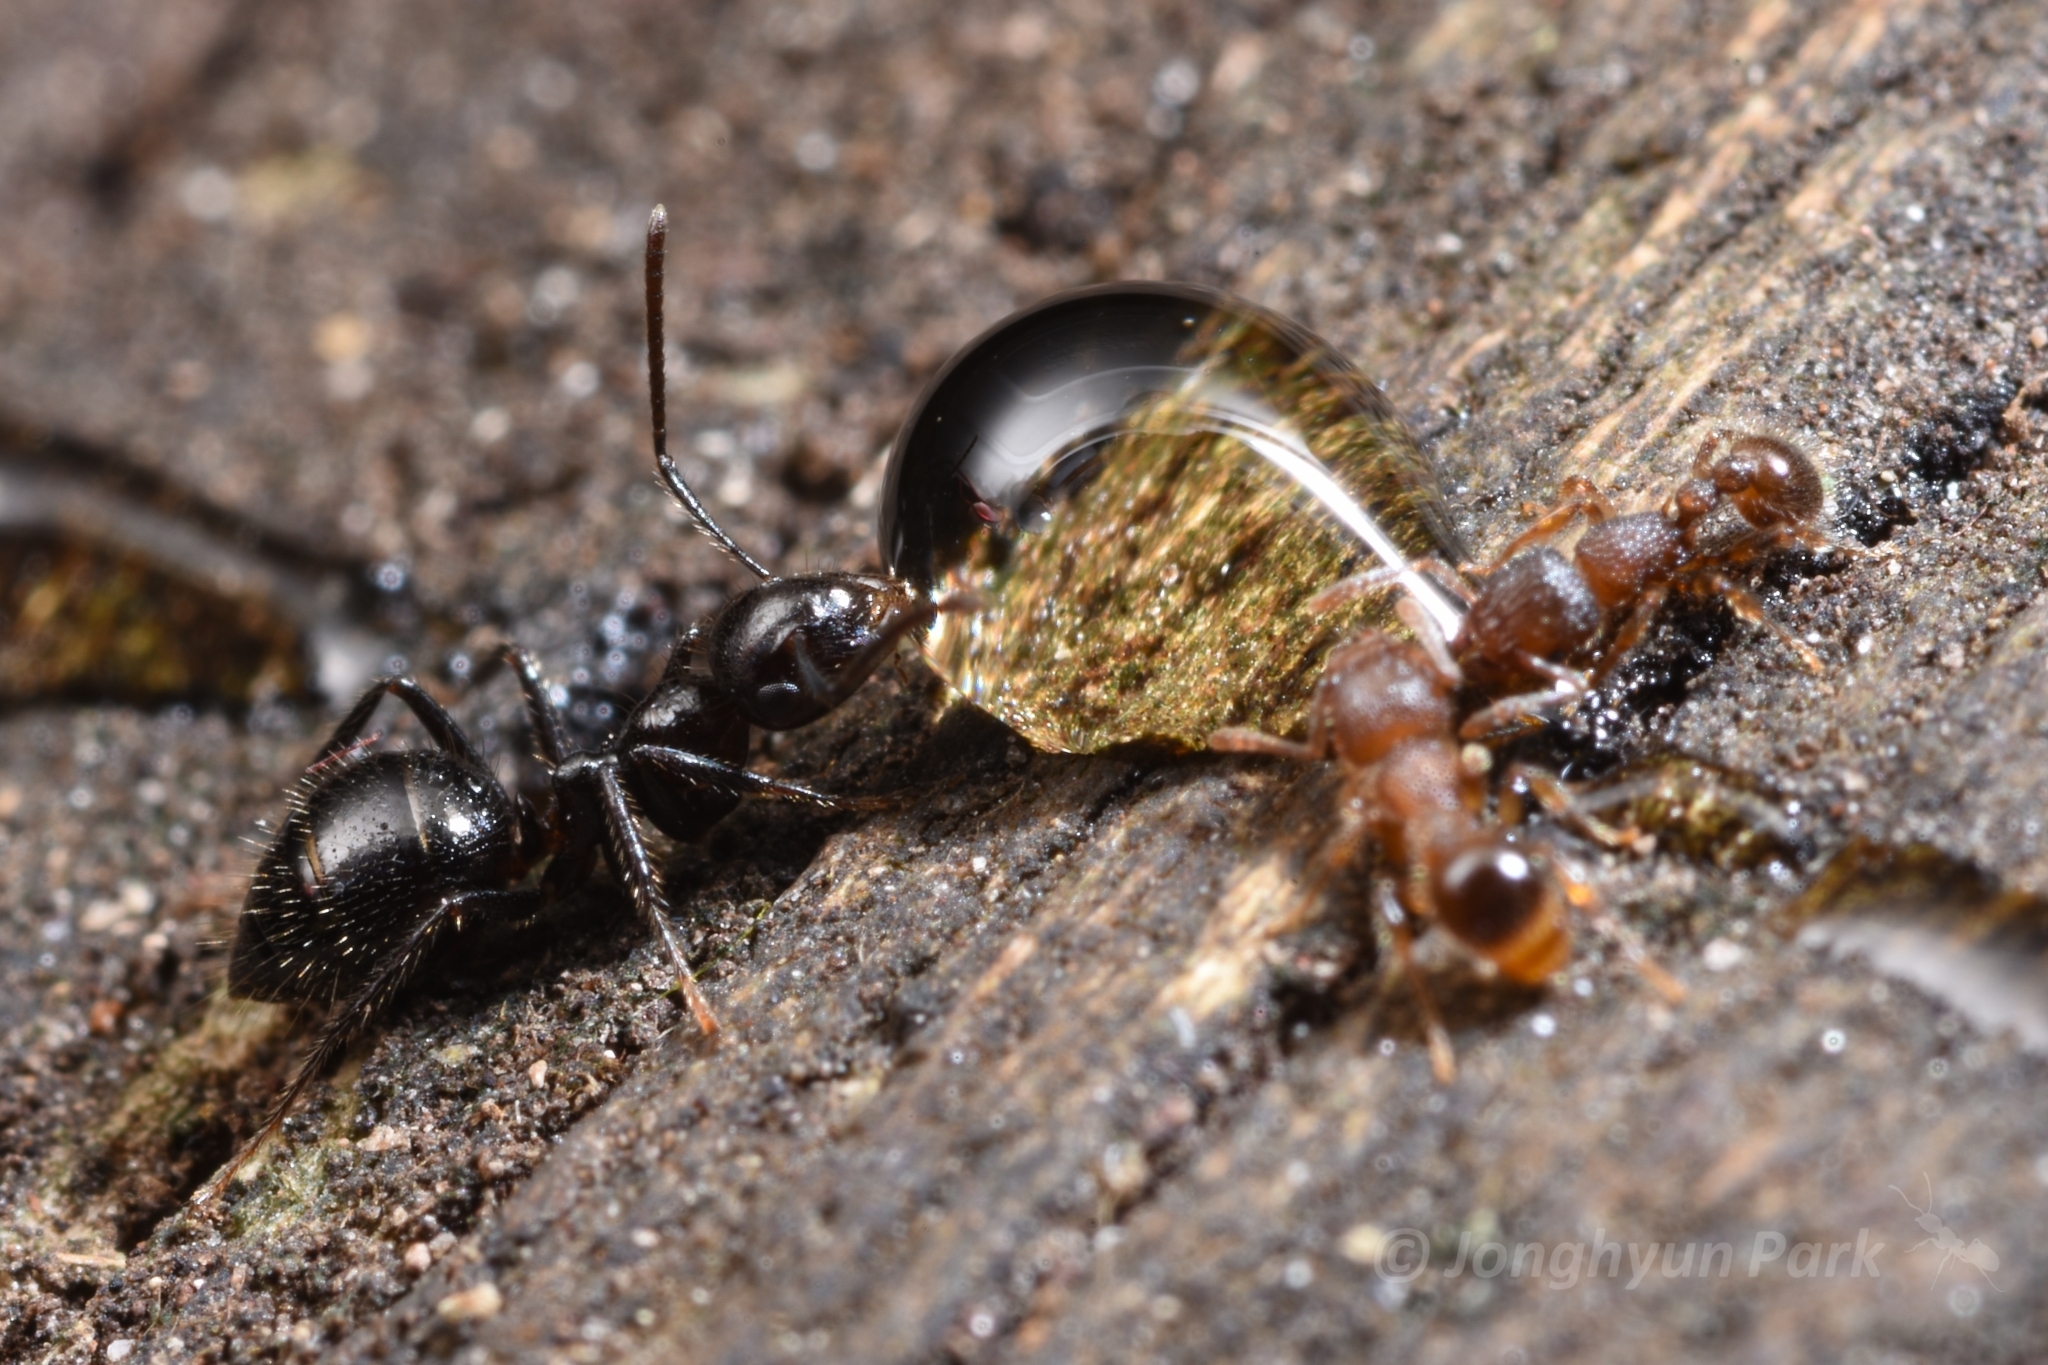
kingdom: Animalia
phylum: Arthropoda
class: Insecta
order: Hymenoptera
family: Formicidae
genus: Camponotus
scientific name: Camponotus vitreus
